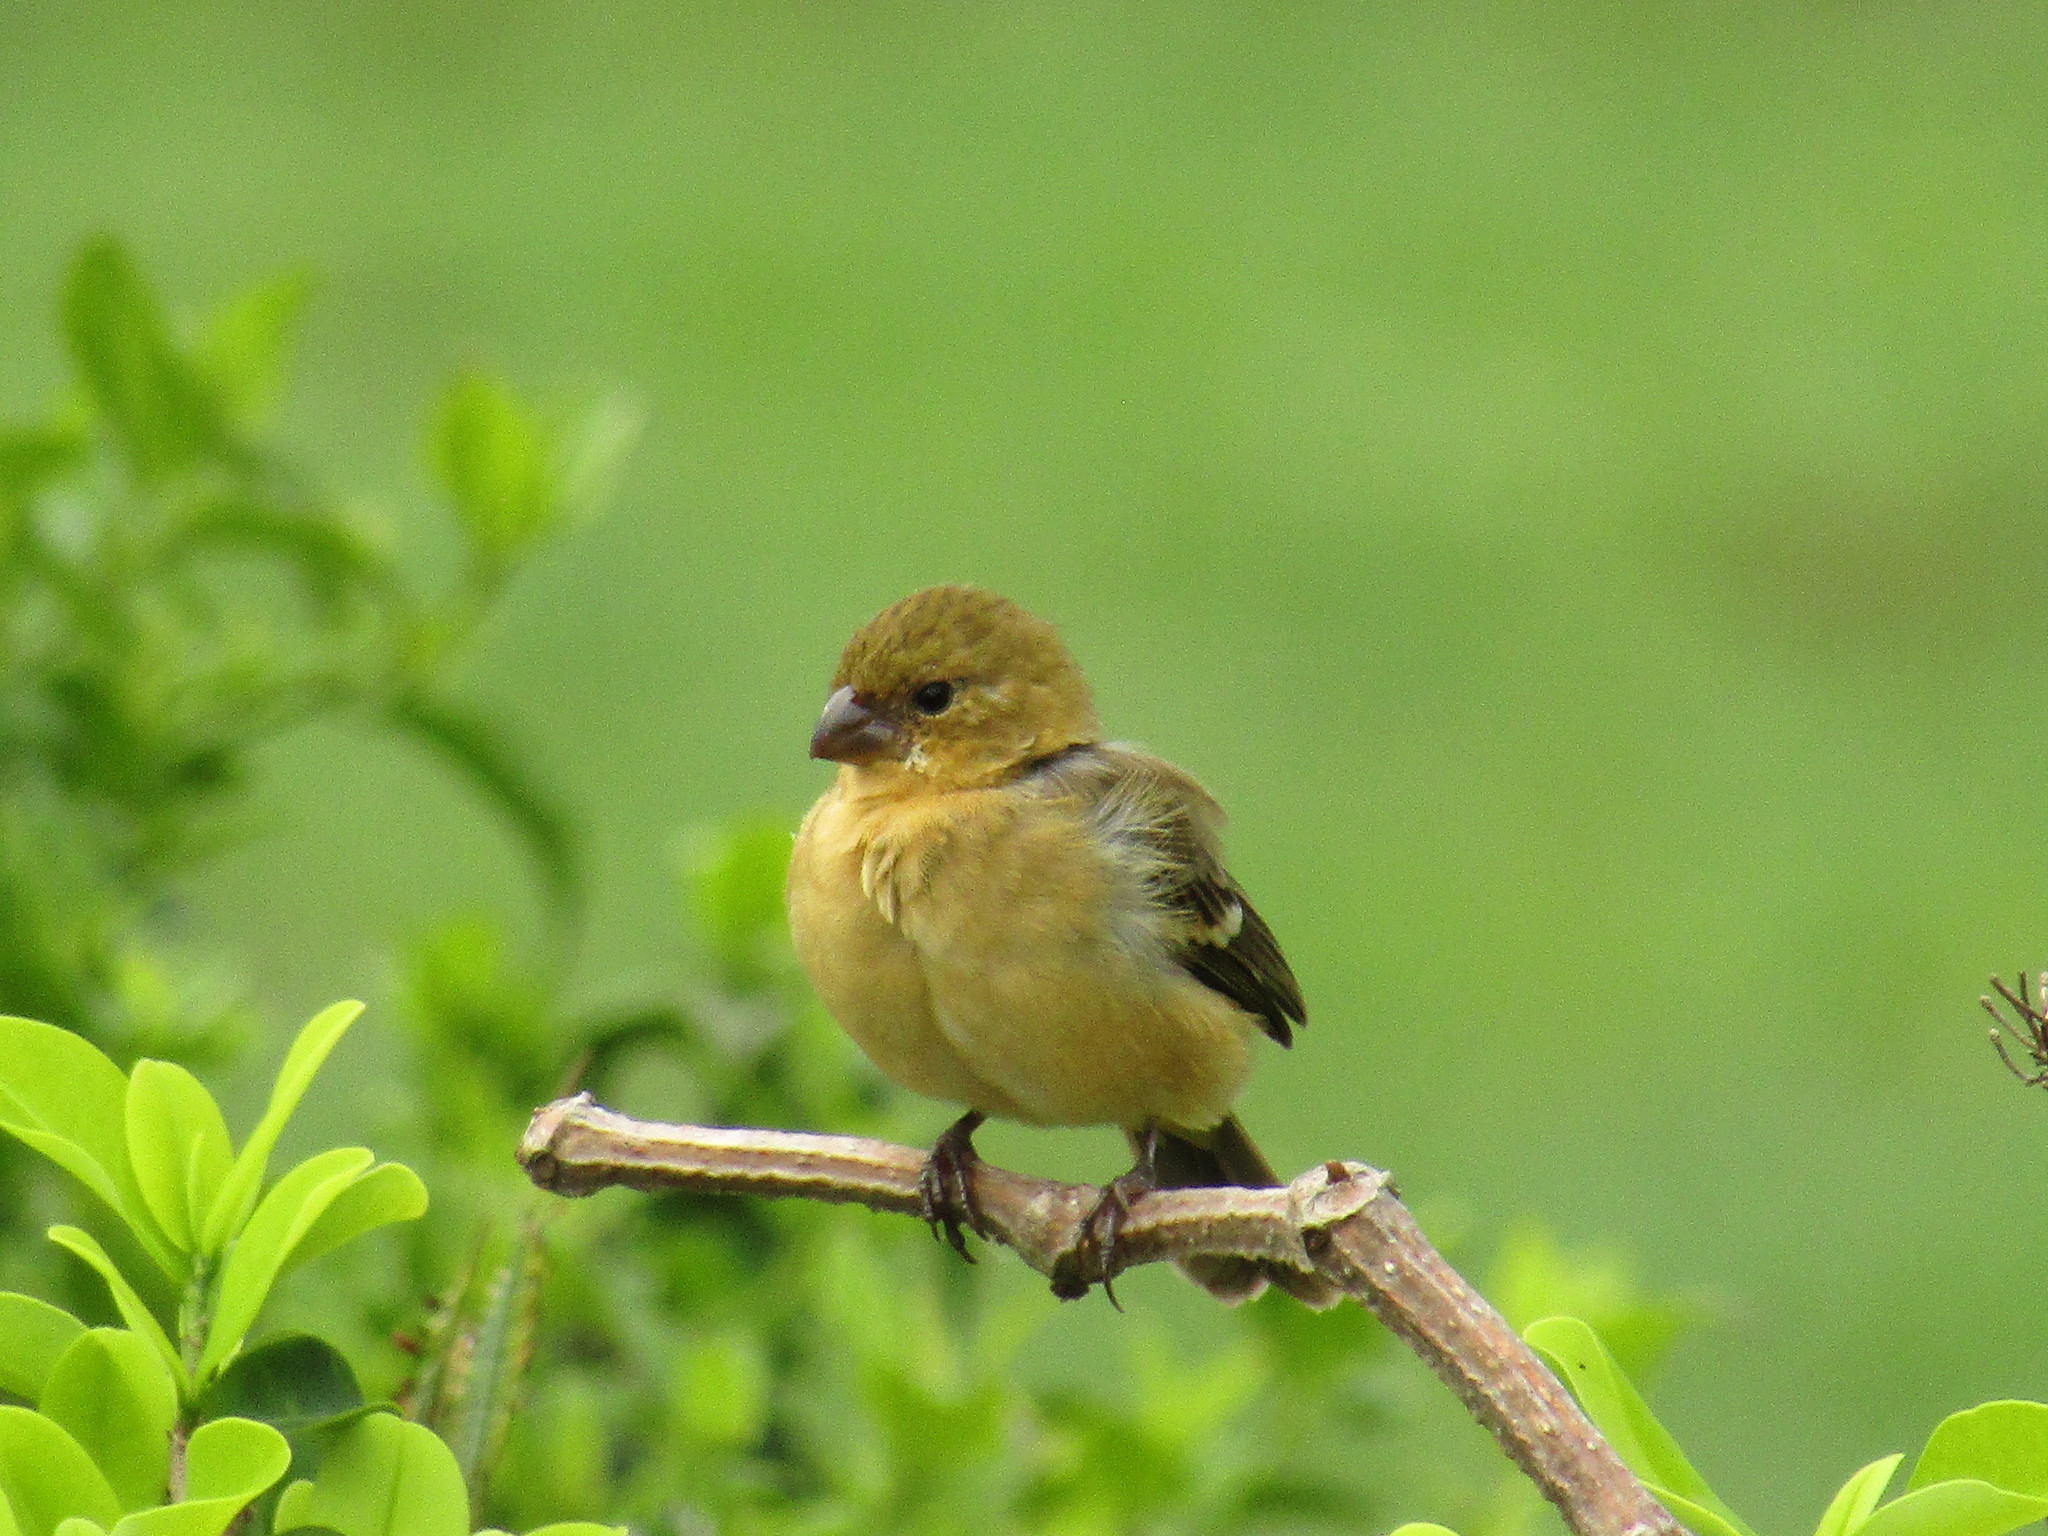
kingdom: Animalia
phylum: Chordata
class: Aves
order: Passeriformes
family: Thraupidae
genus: Sporophila
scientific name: Sporophila morelleti
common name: Morelet's seedeater
